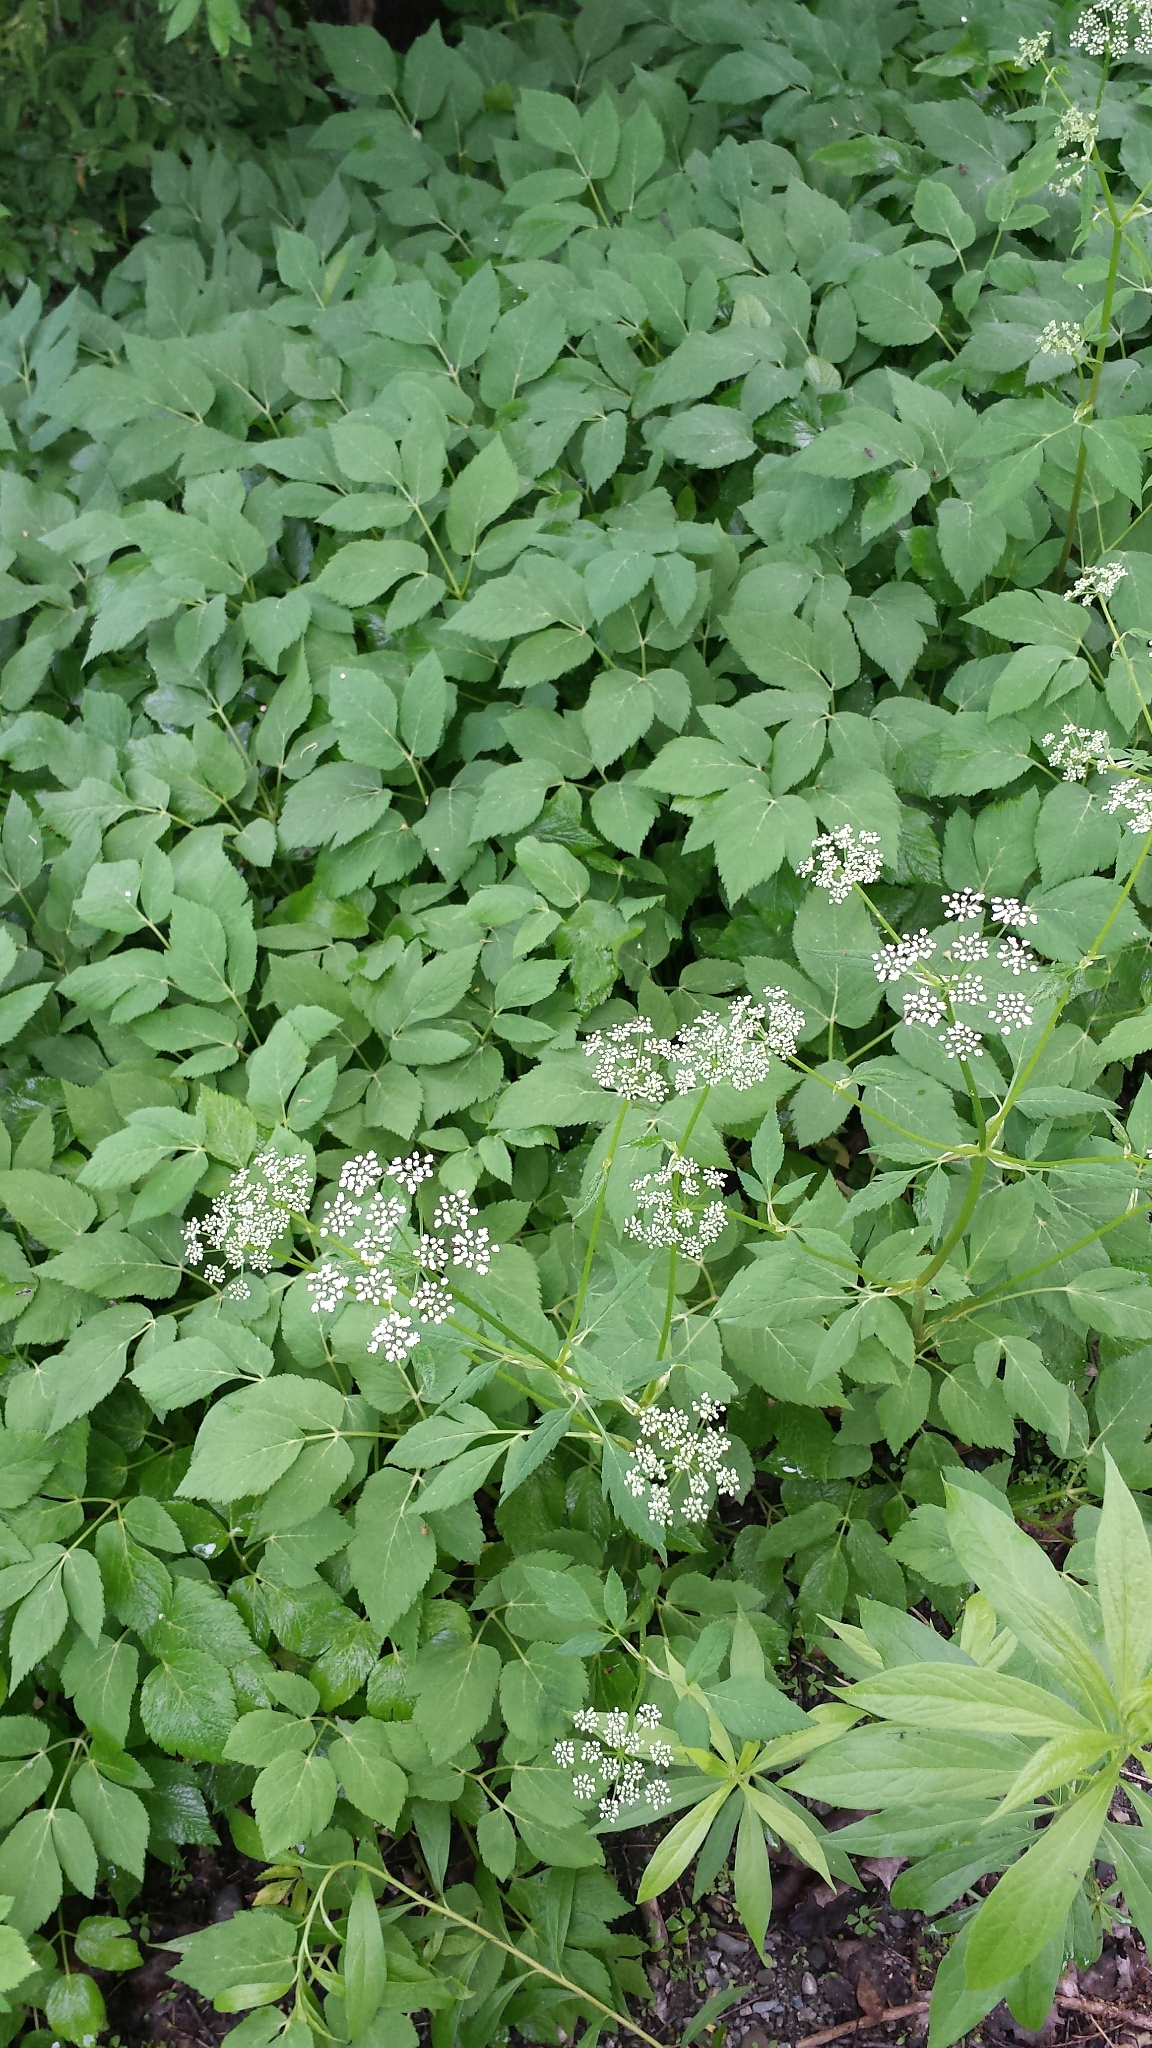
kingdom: Plantae
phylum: Tracheophyta
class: Magnoliopsida
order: Apiales
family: Apiaceae
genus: Aegopodium
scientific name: Aegopodium podagraria
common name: Ground-elder
